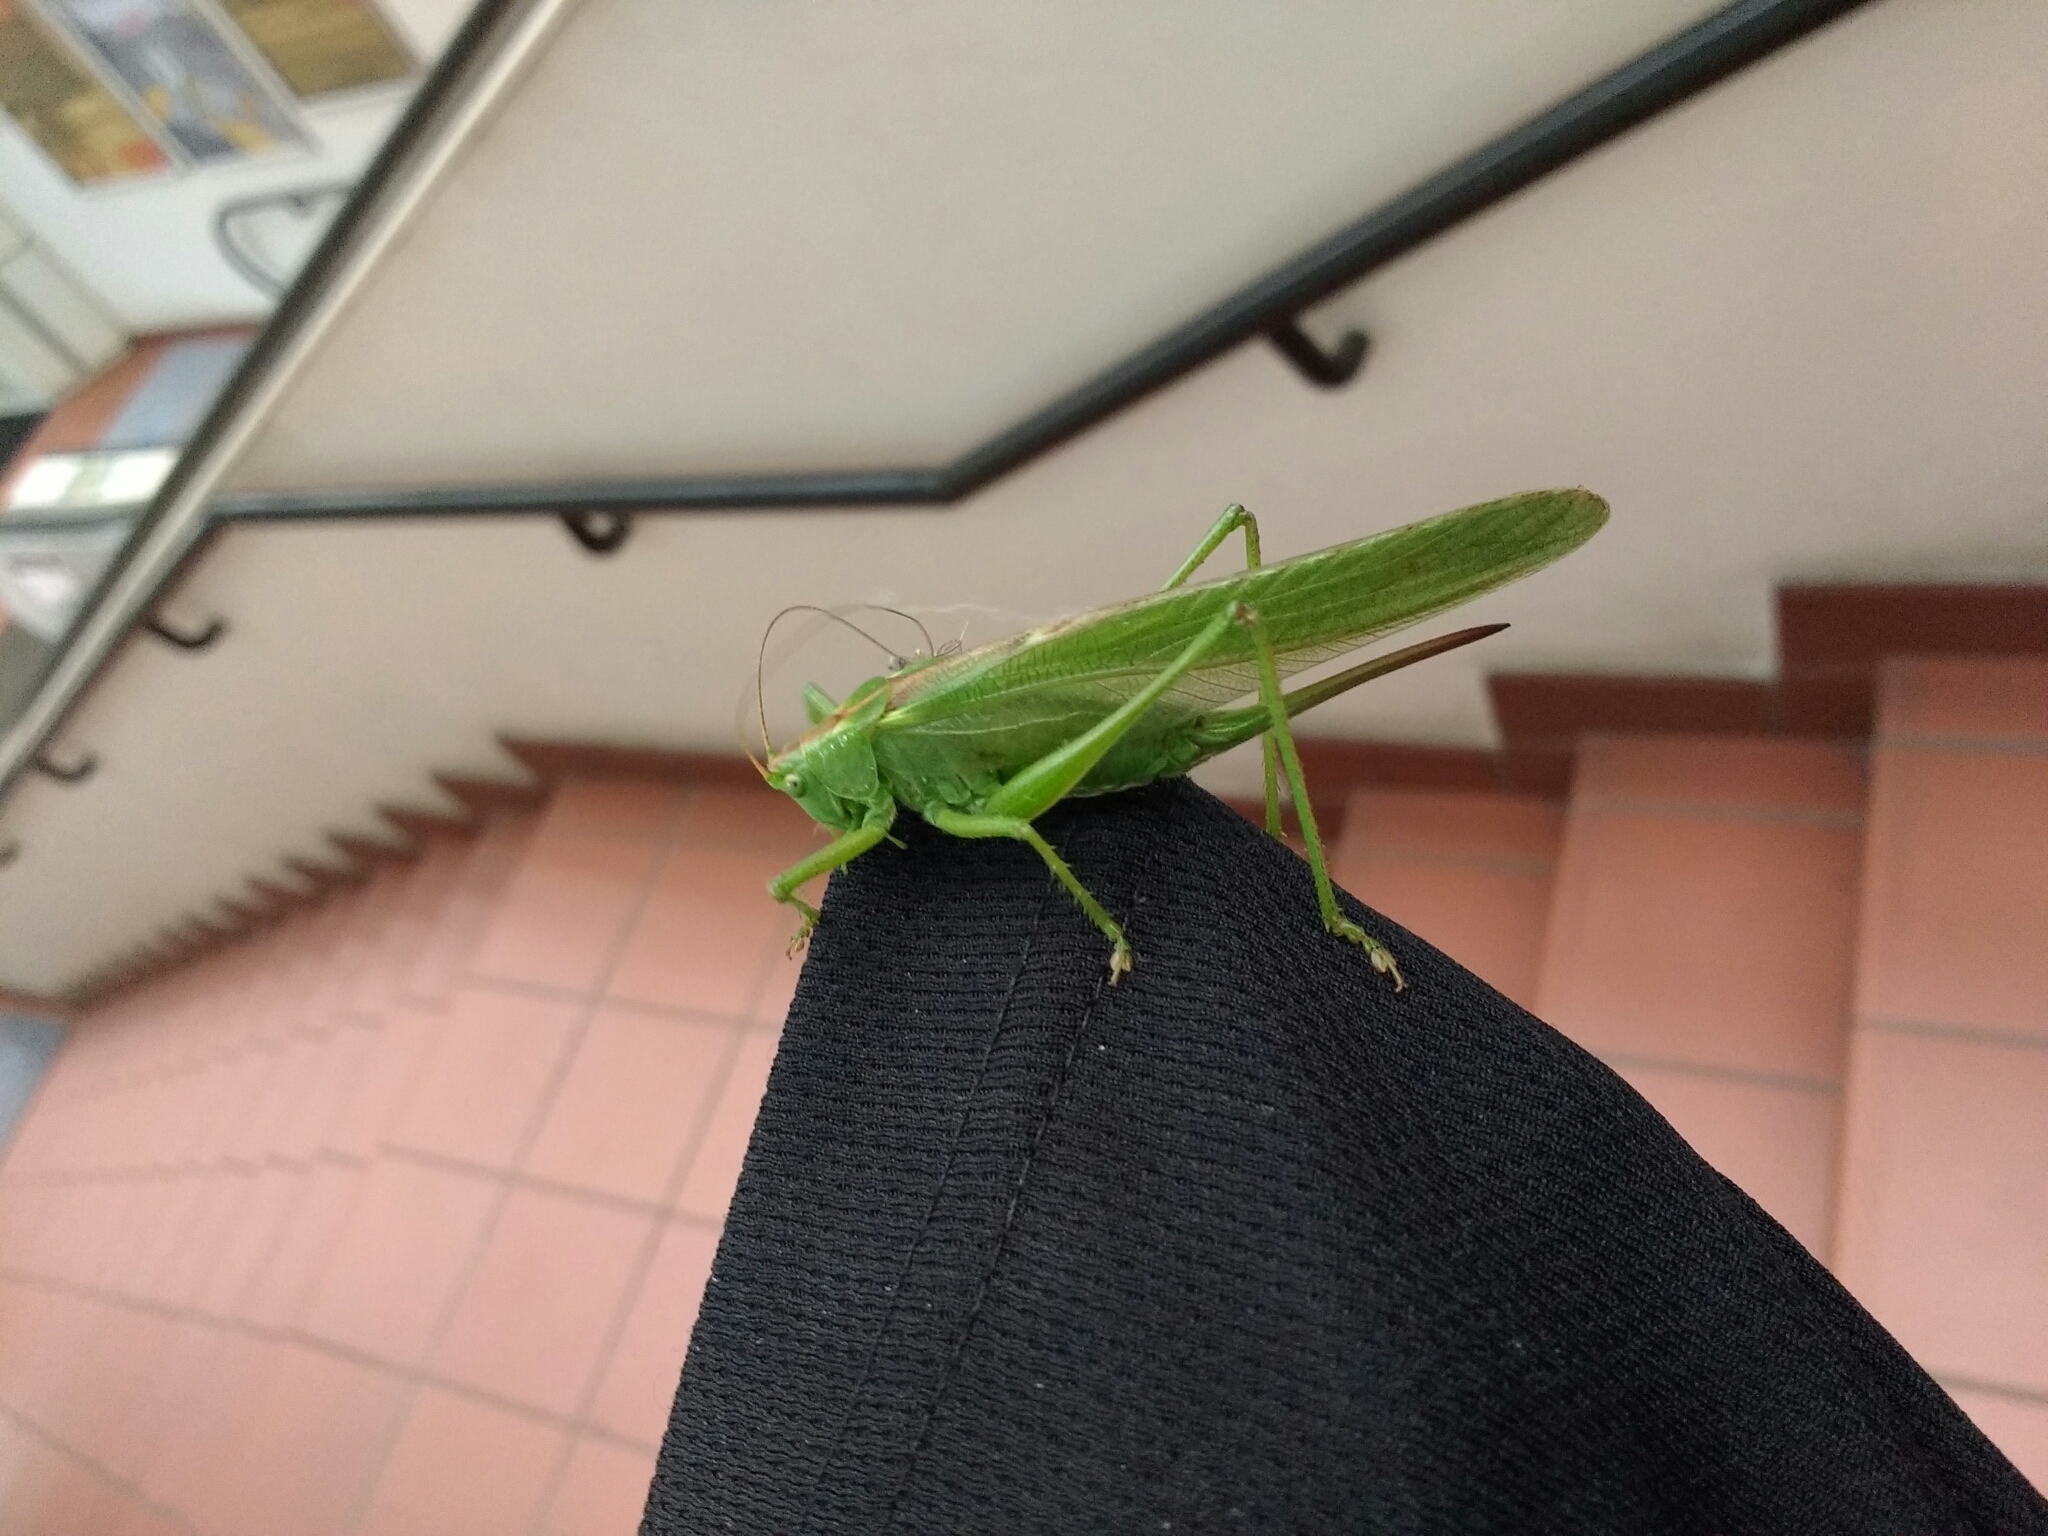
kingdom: Animalia
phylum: Arthropoda
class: Insecta
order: Orthoptera
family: Tettigoniidae
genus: Tettigonia
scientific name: Tettigonia viridissima
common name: Great green bush-cricket
